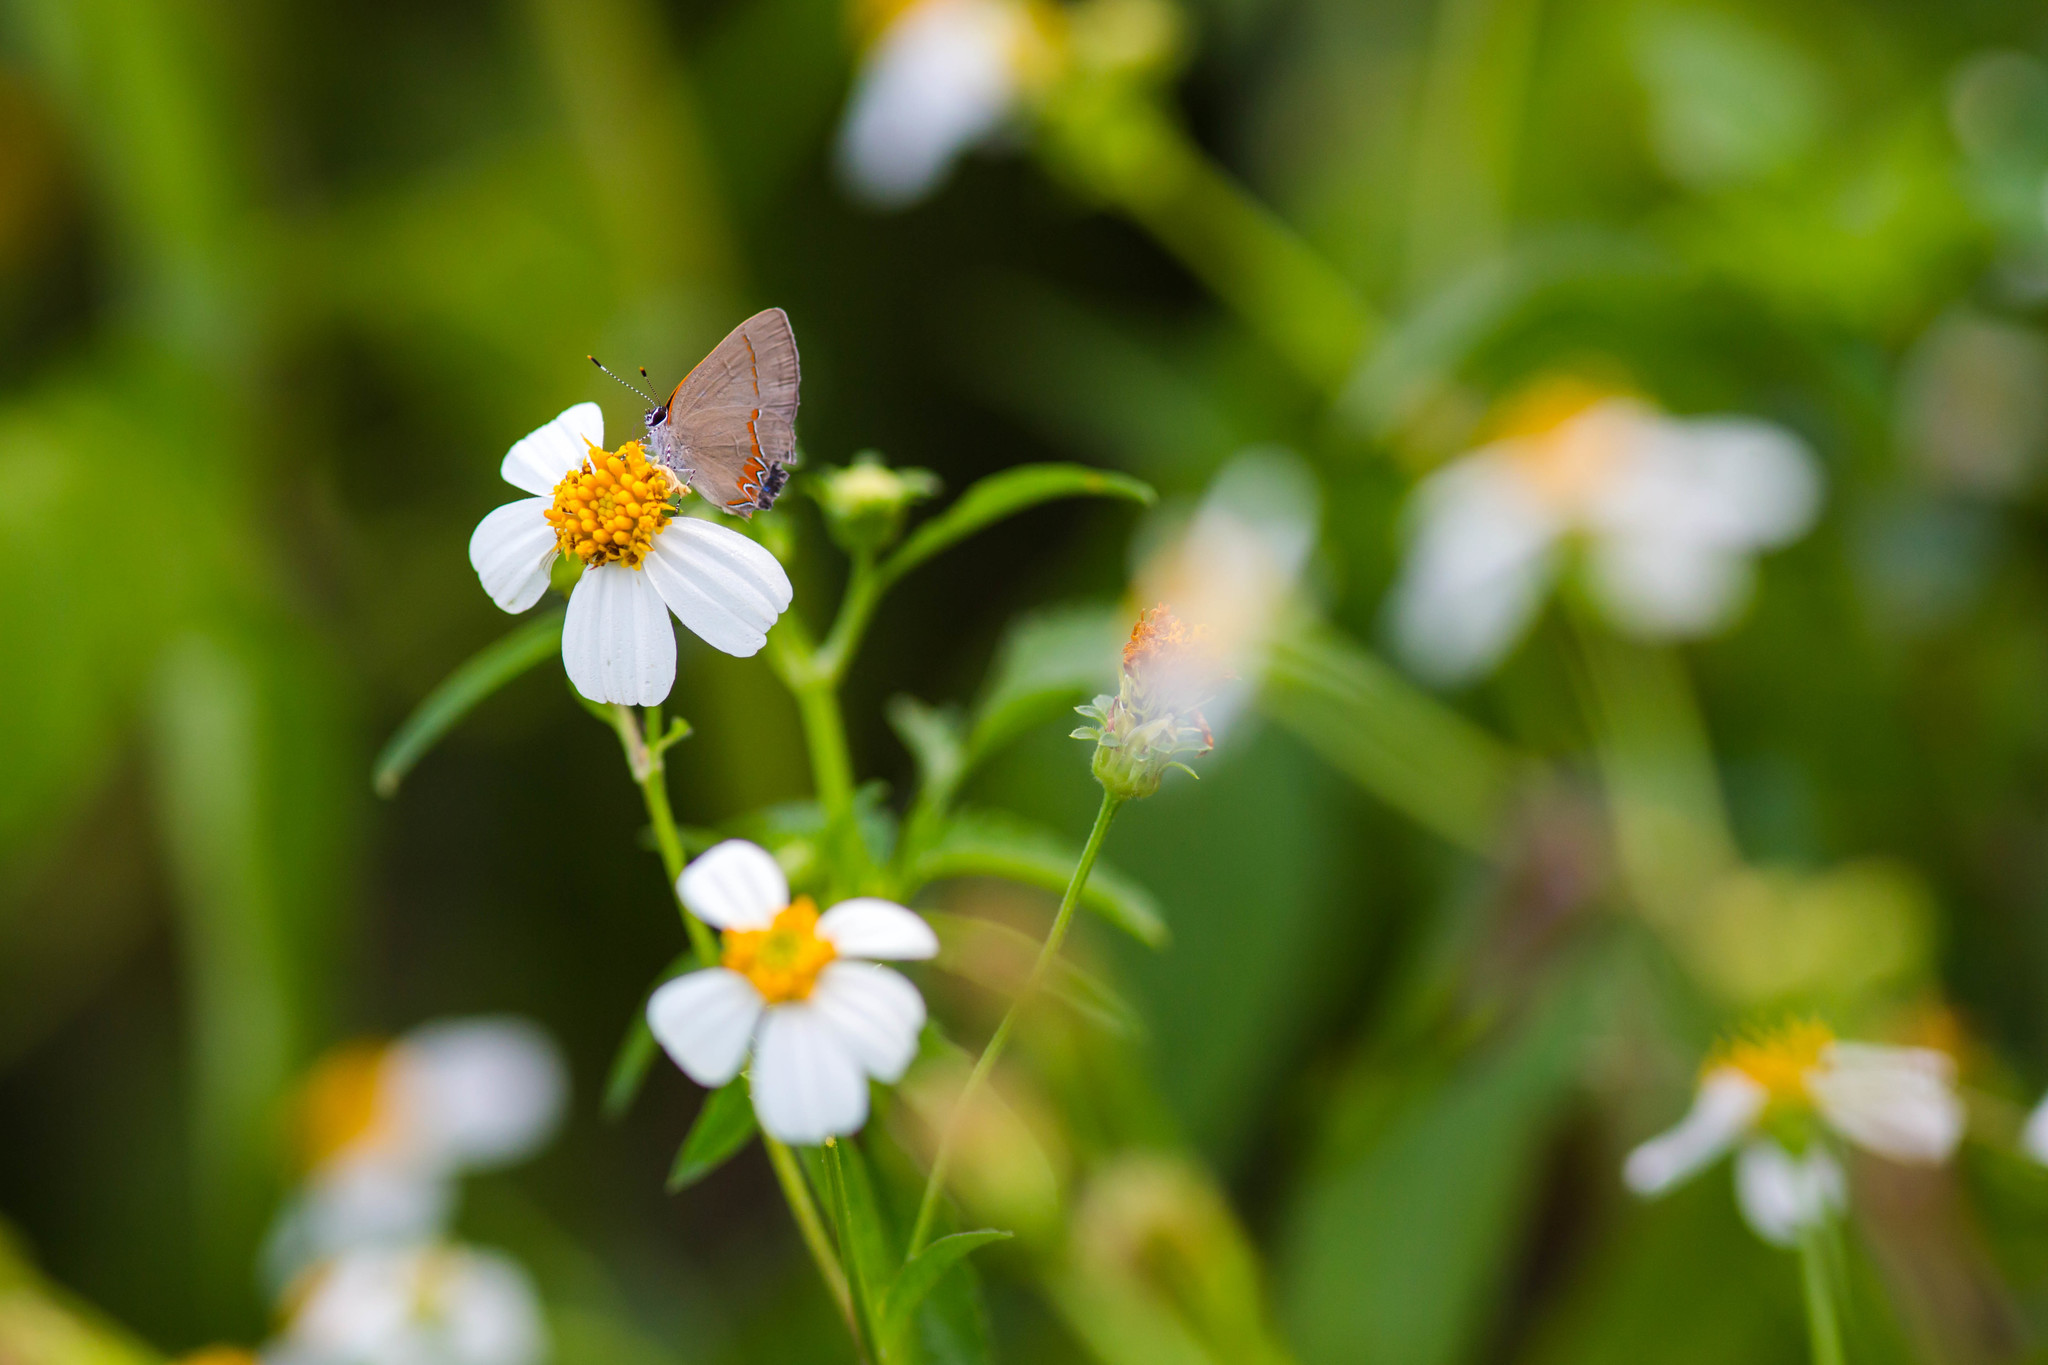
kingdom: Animalia
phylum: Arthropoda
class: Insecta
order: Lepidoptera
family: Lycaenidae
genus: Calycopis
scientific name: Calycopis cecrops
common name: Red-banded hairstreak
